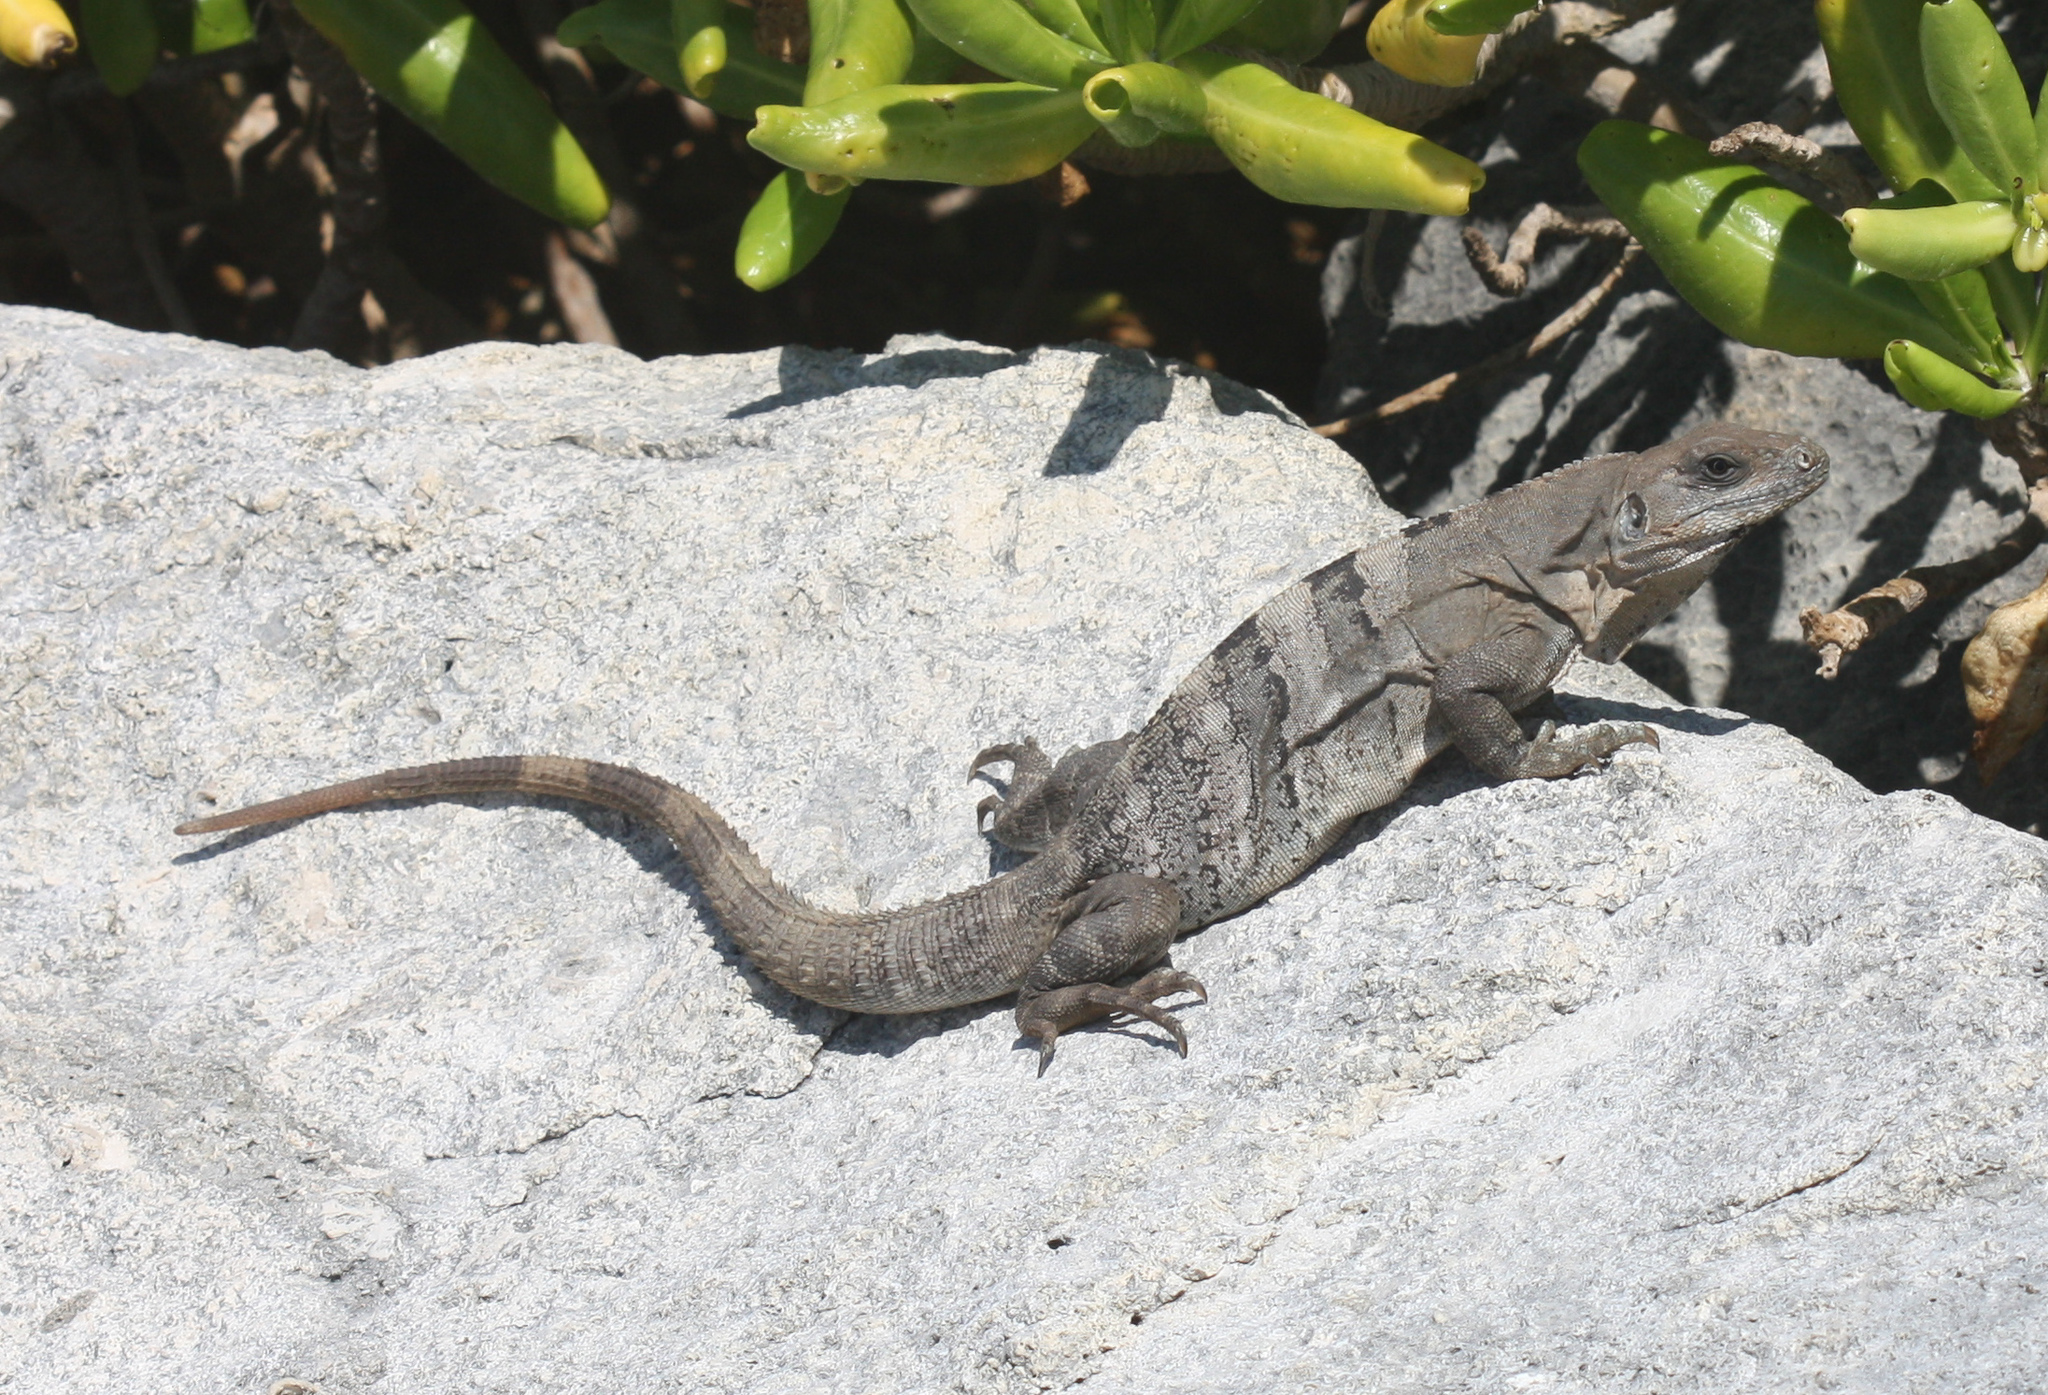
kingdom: Animalia
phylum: Chordata
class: Squamata
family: Iguanidae
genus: Ctenosaura
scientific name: Ctenosaura similis
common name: Black spiny-tailed iguana
